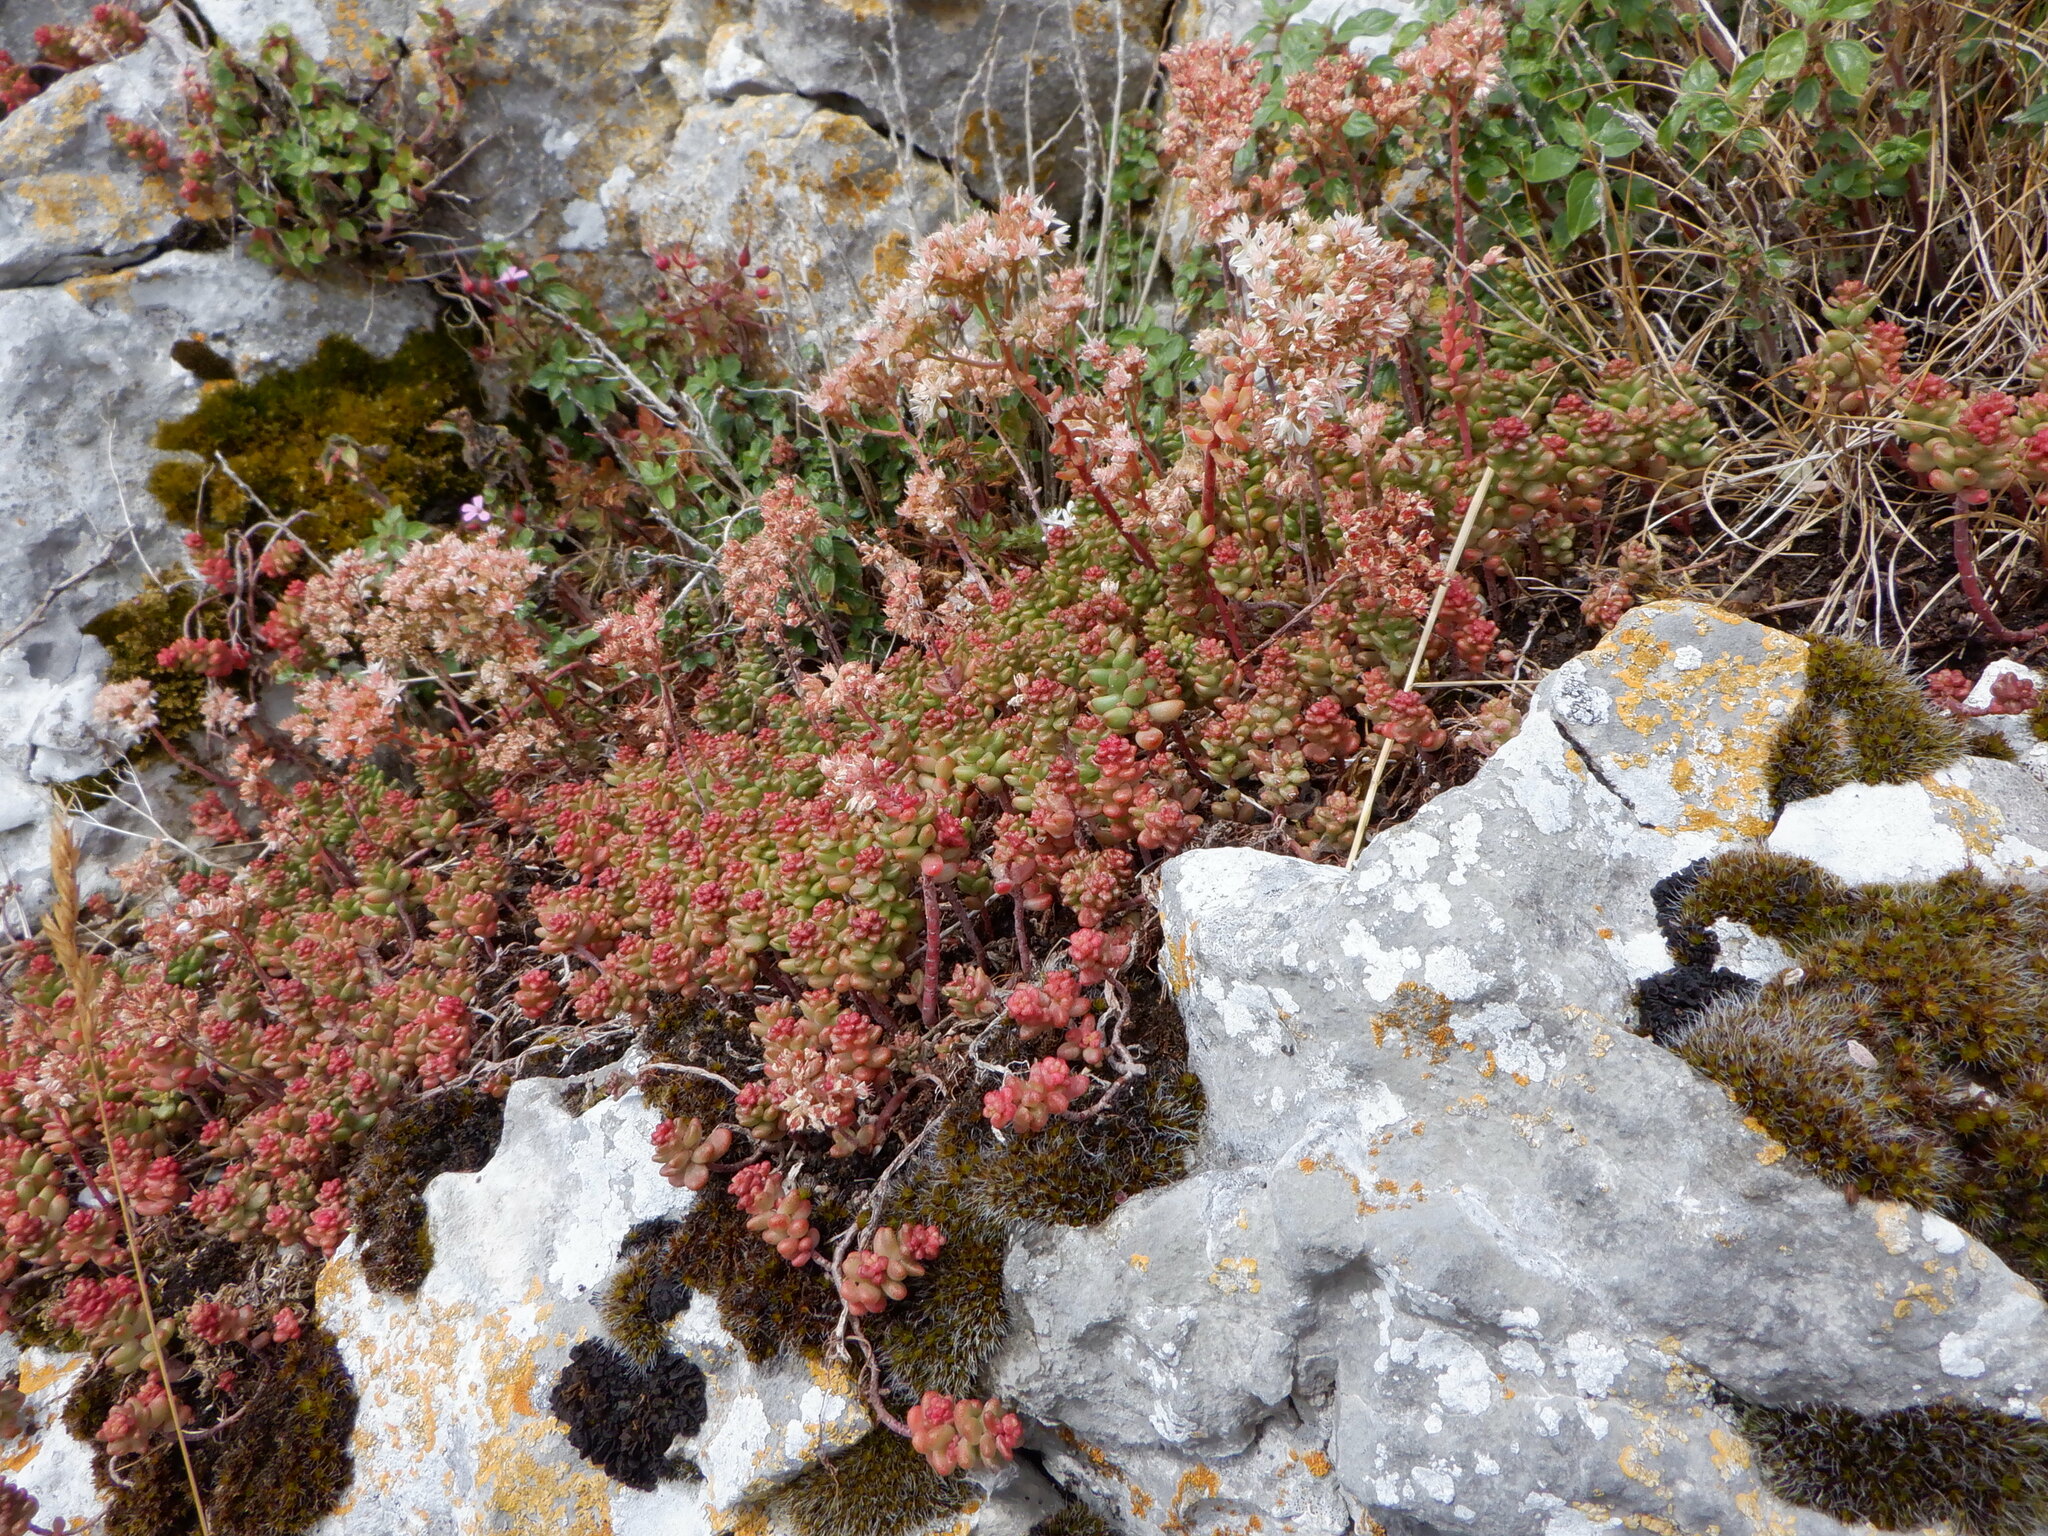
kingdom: Plantae
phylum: Tracheophyta
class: Magnoliopsida
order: Saxifragales
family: Crassulaceae
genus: Sedum
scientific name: Sedum album
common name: White stonecrop
